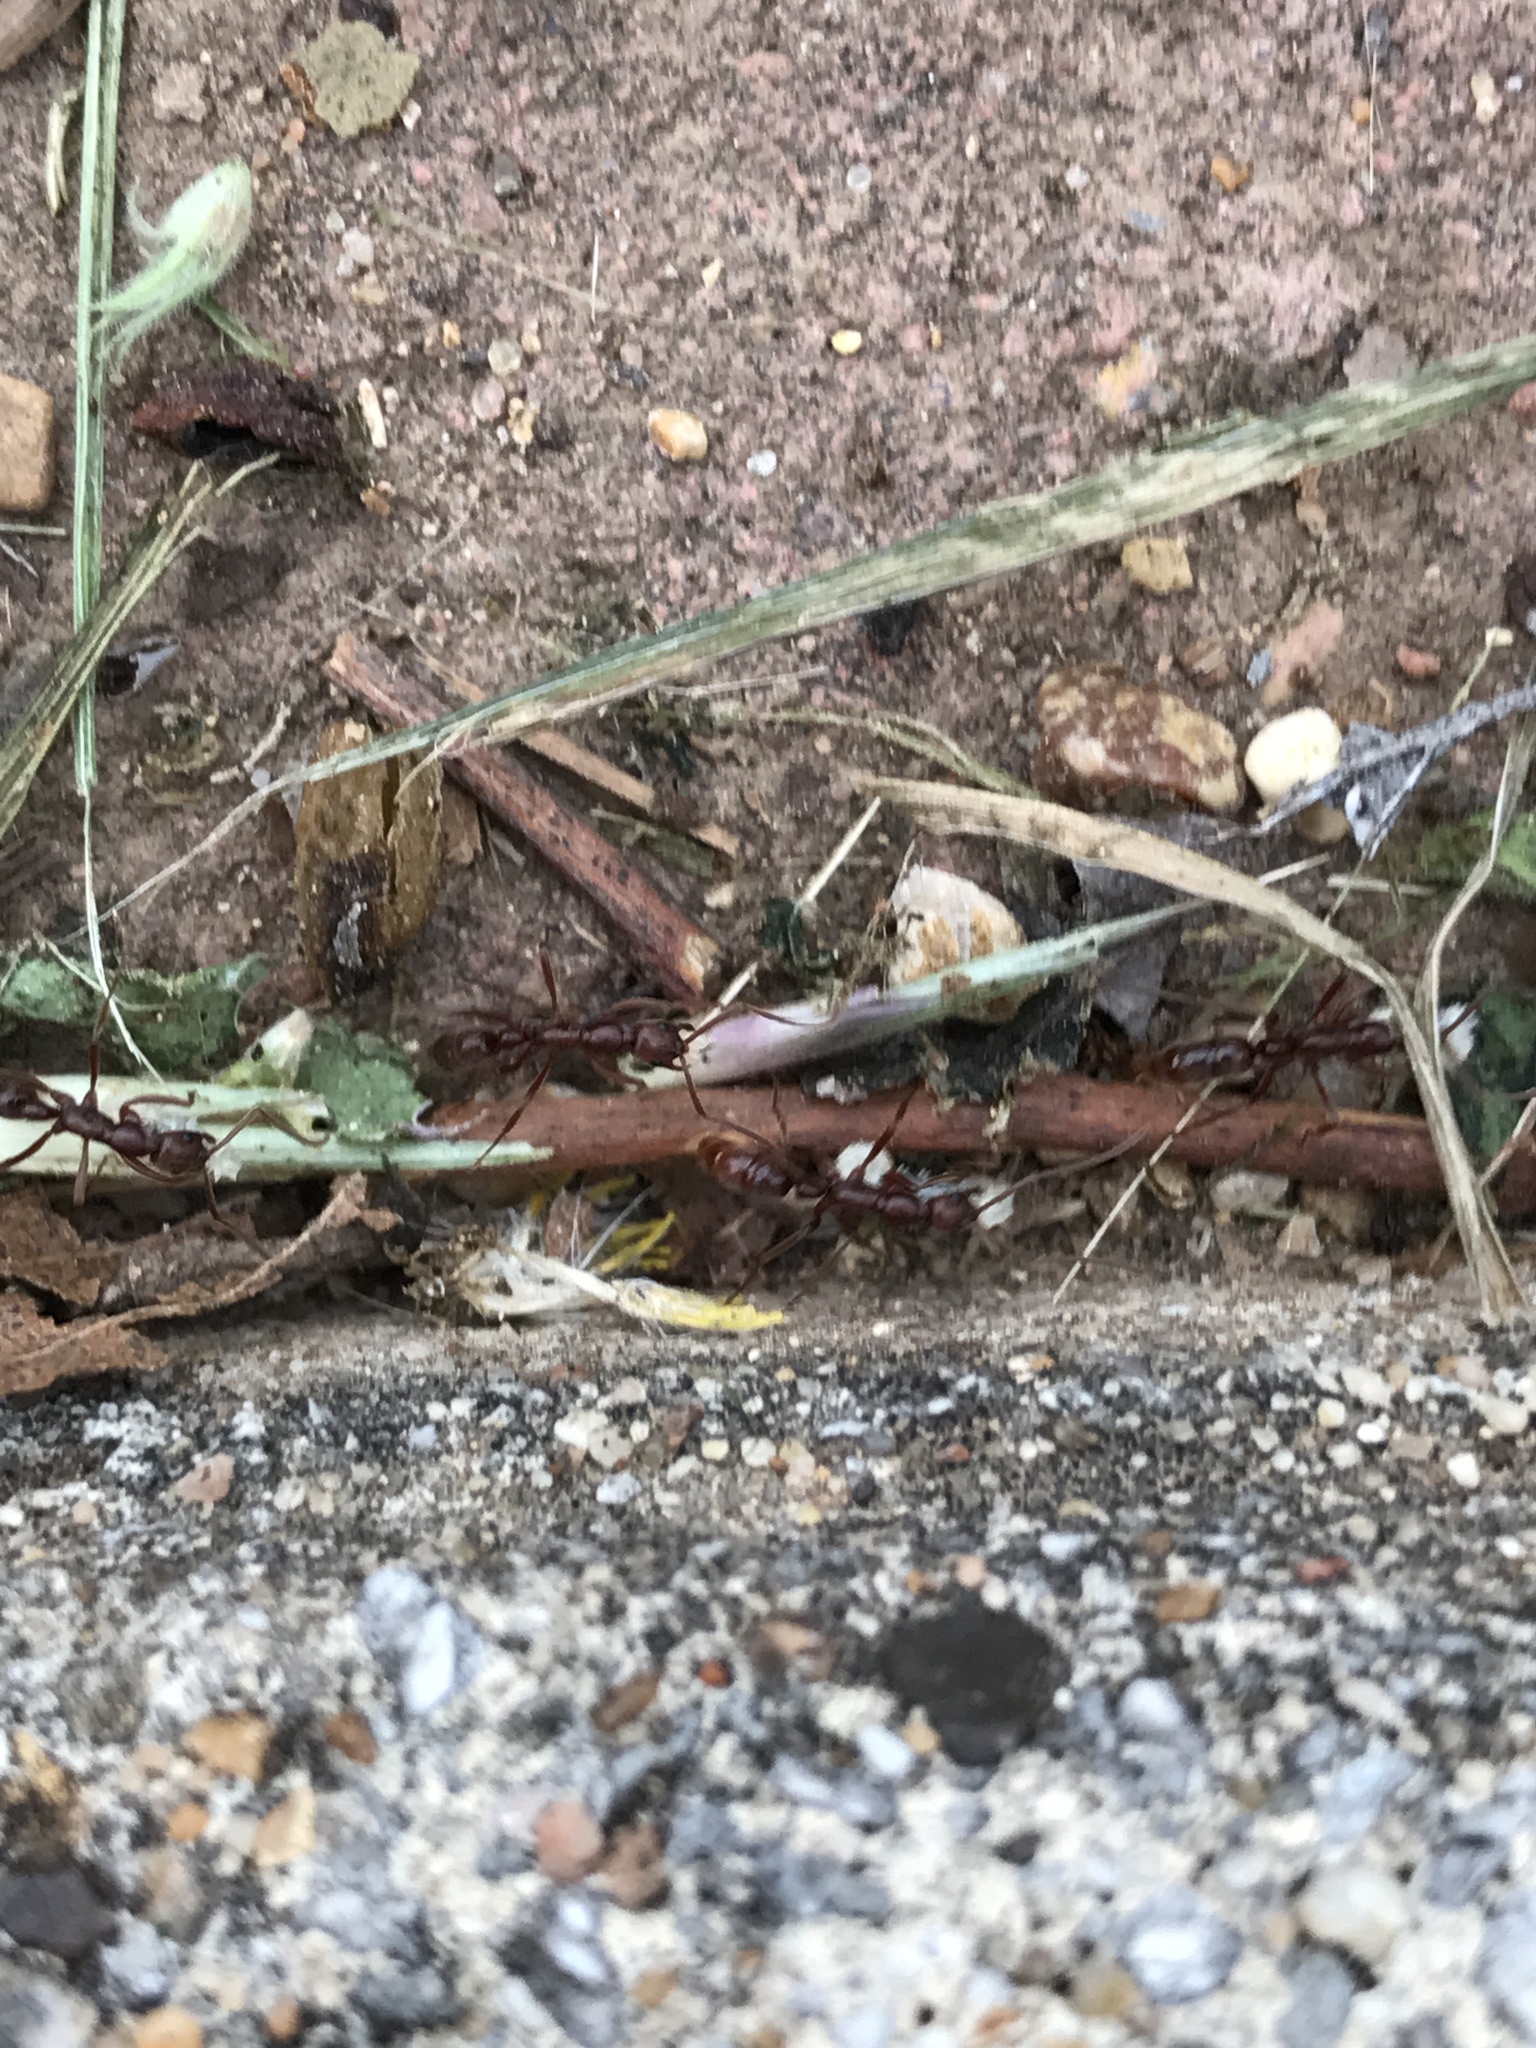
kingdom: Animalia
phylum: Arthropoda
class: Insecta
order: Hymenoptera
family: Formicidae
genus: Leptogenys
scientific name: Leptogenys elongata
